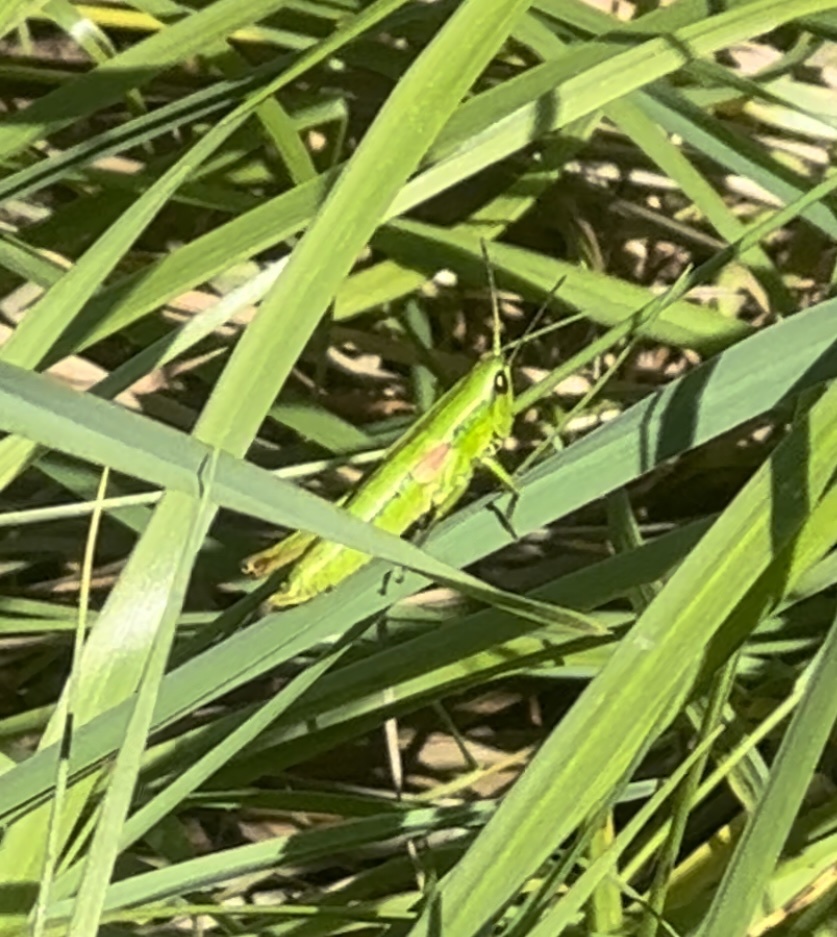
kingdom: Animalia
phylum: Arthropoda
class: Insecta
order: Orthoptera
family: Acrididae
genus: Euthystira
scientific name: Euthystira brachyptera
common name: Small gold grasshopper
